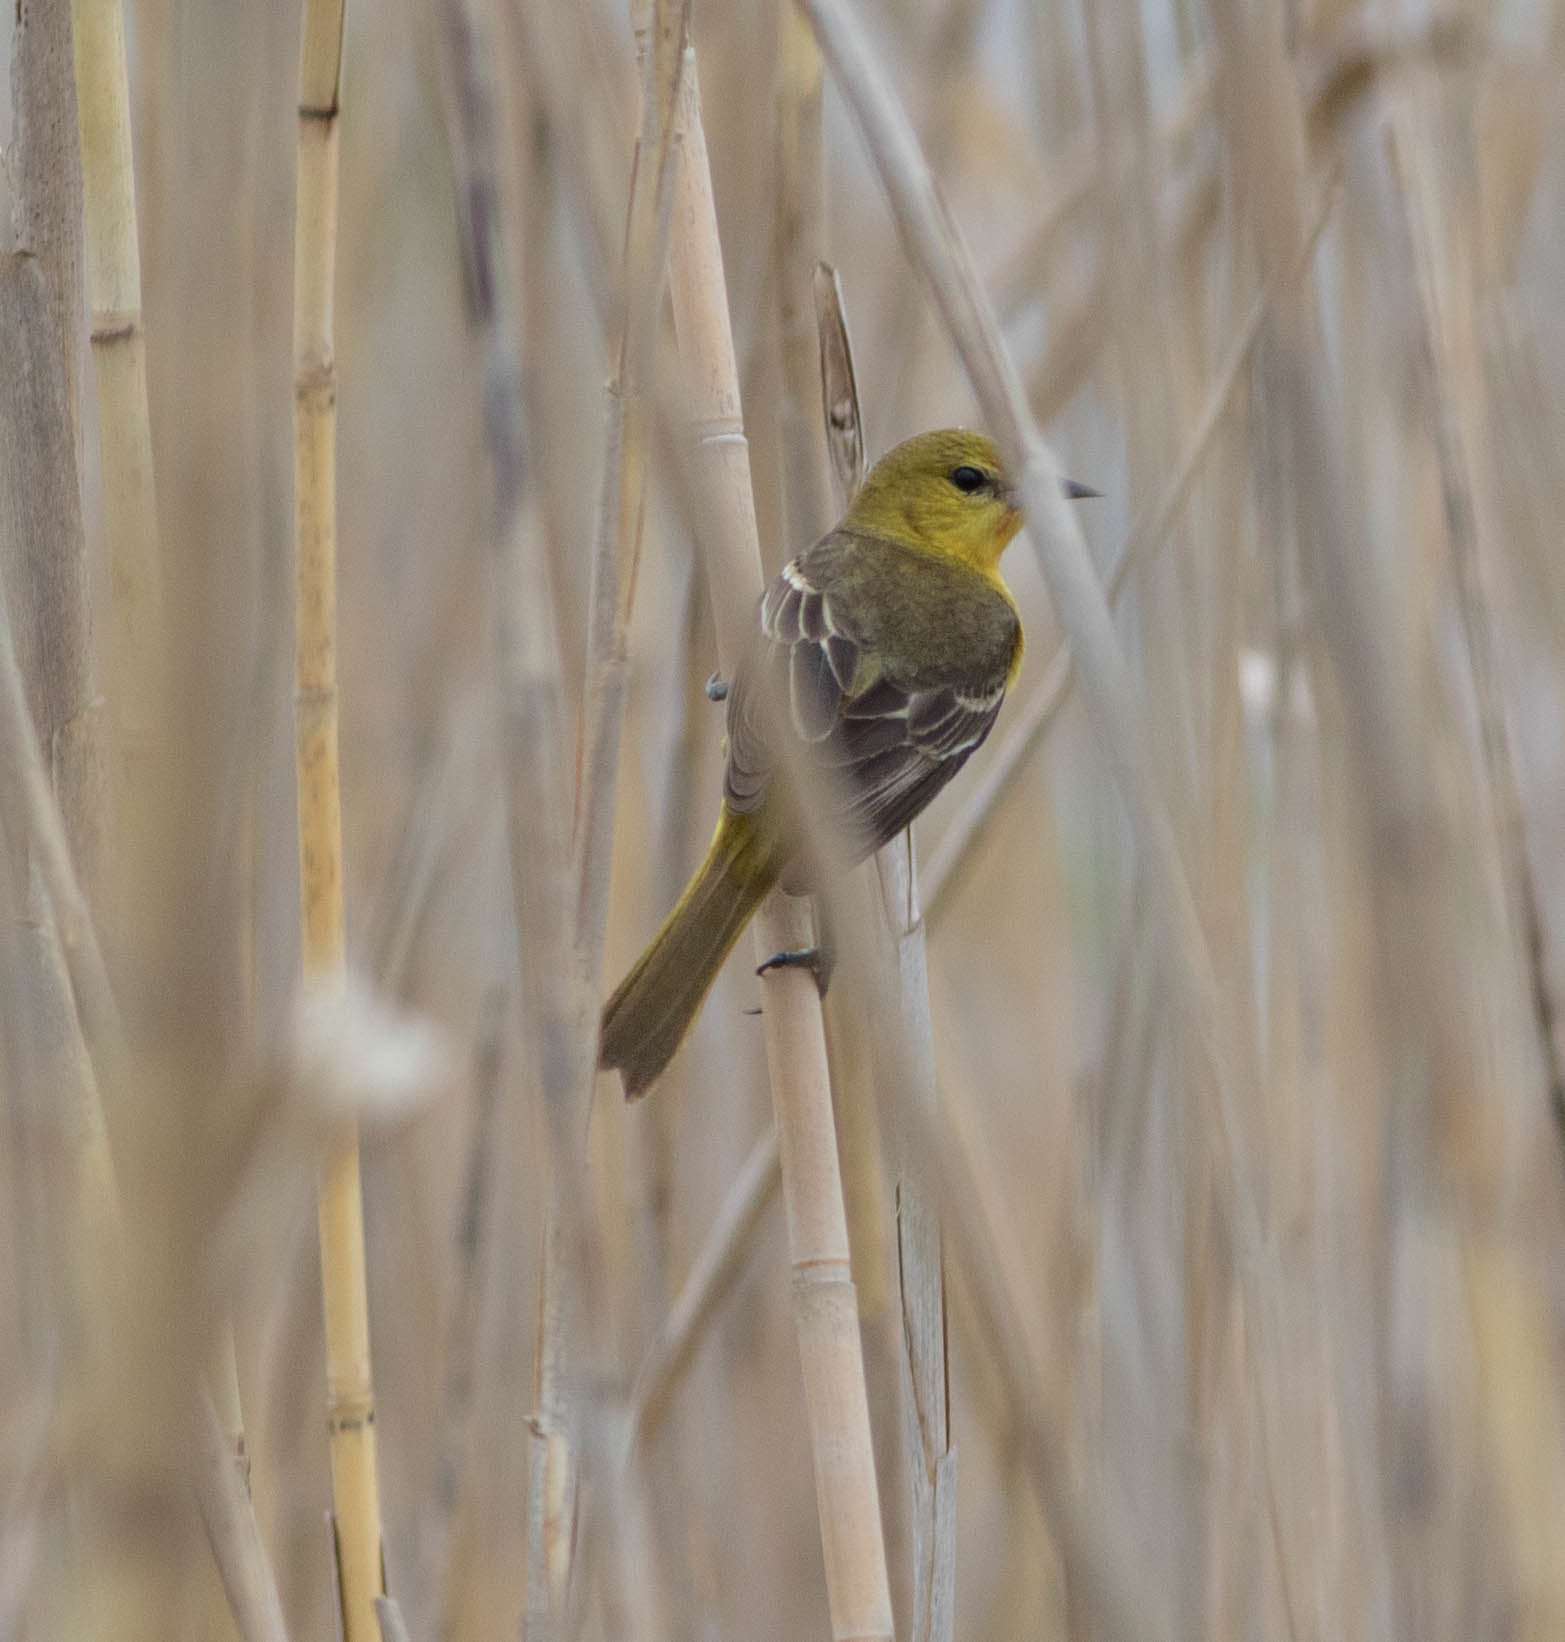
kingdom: Animalia
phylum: Chordata
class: Aves
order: Passeriformes
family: Icteridae
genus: Icterus
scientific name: Icterus spurius
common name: Orchard oriole
